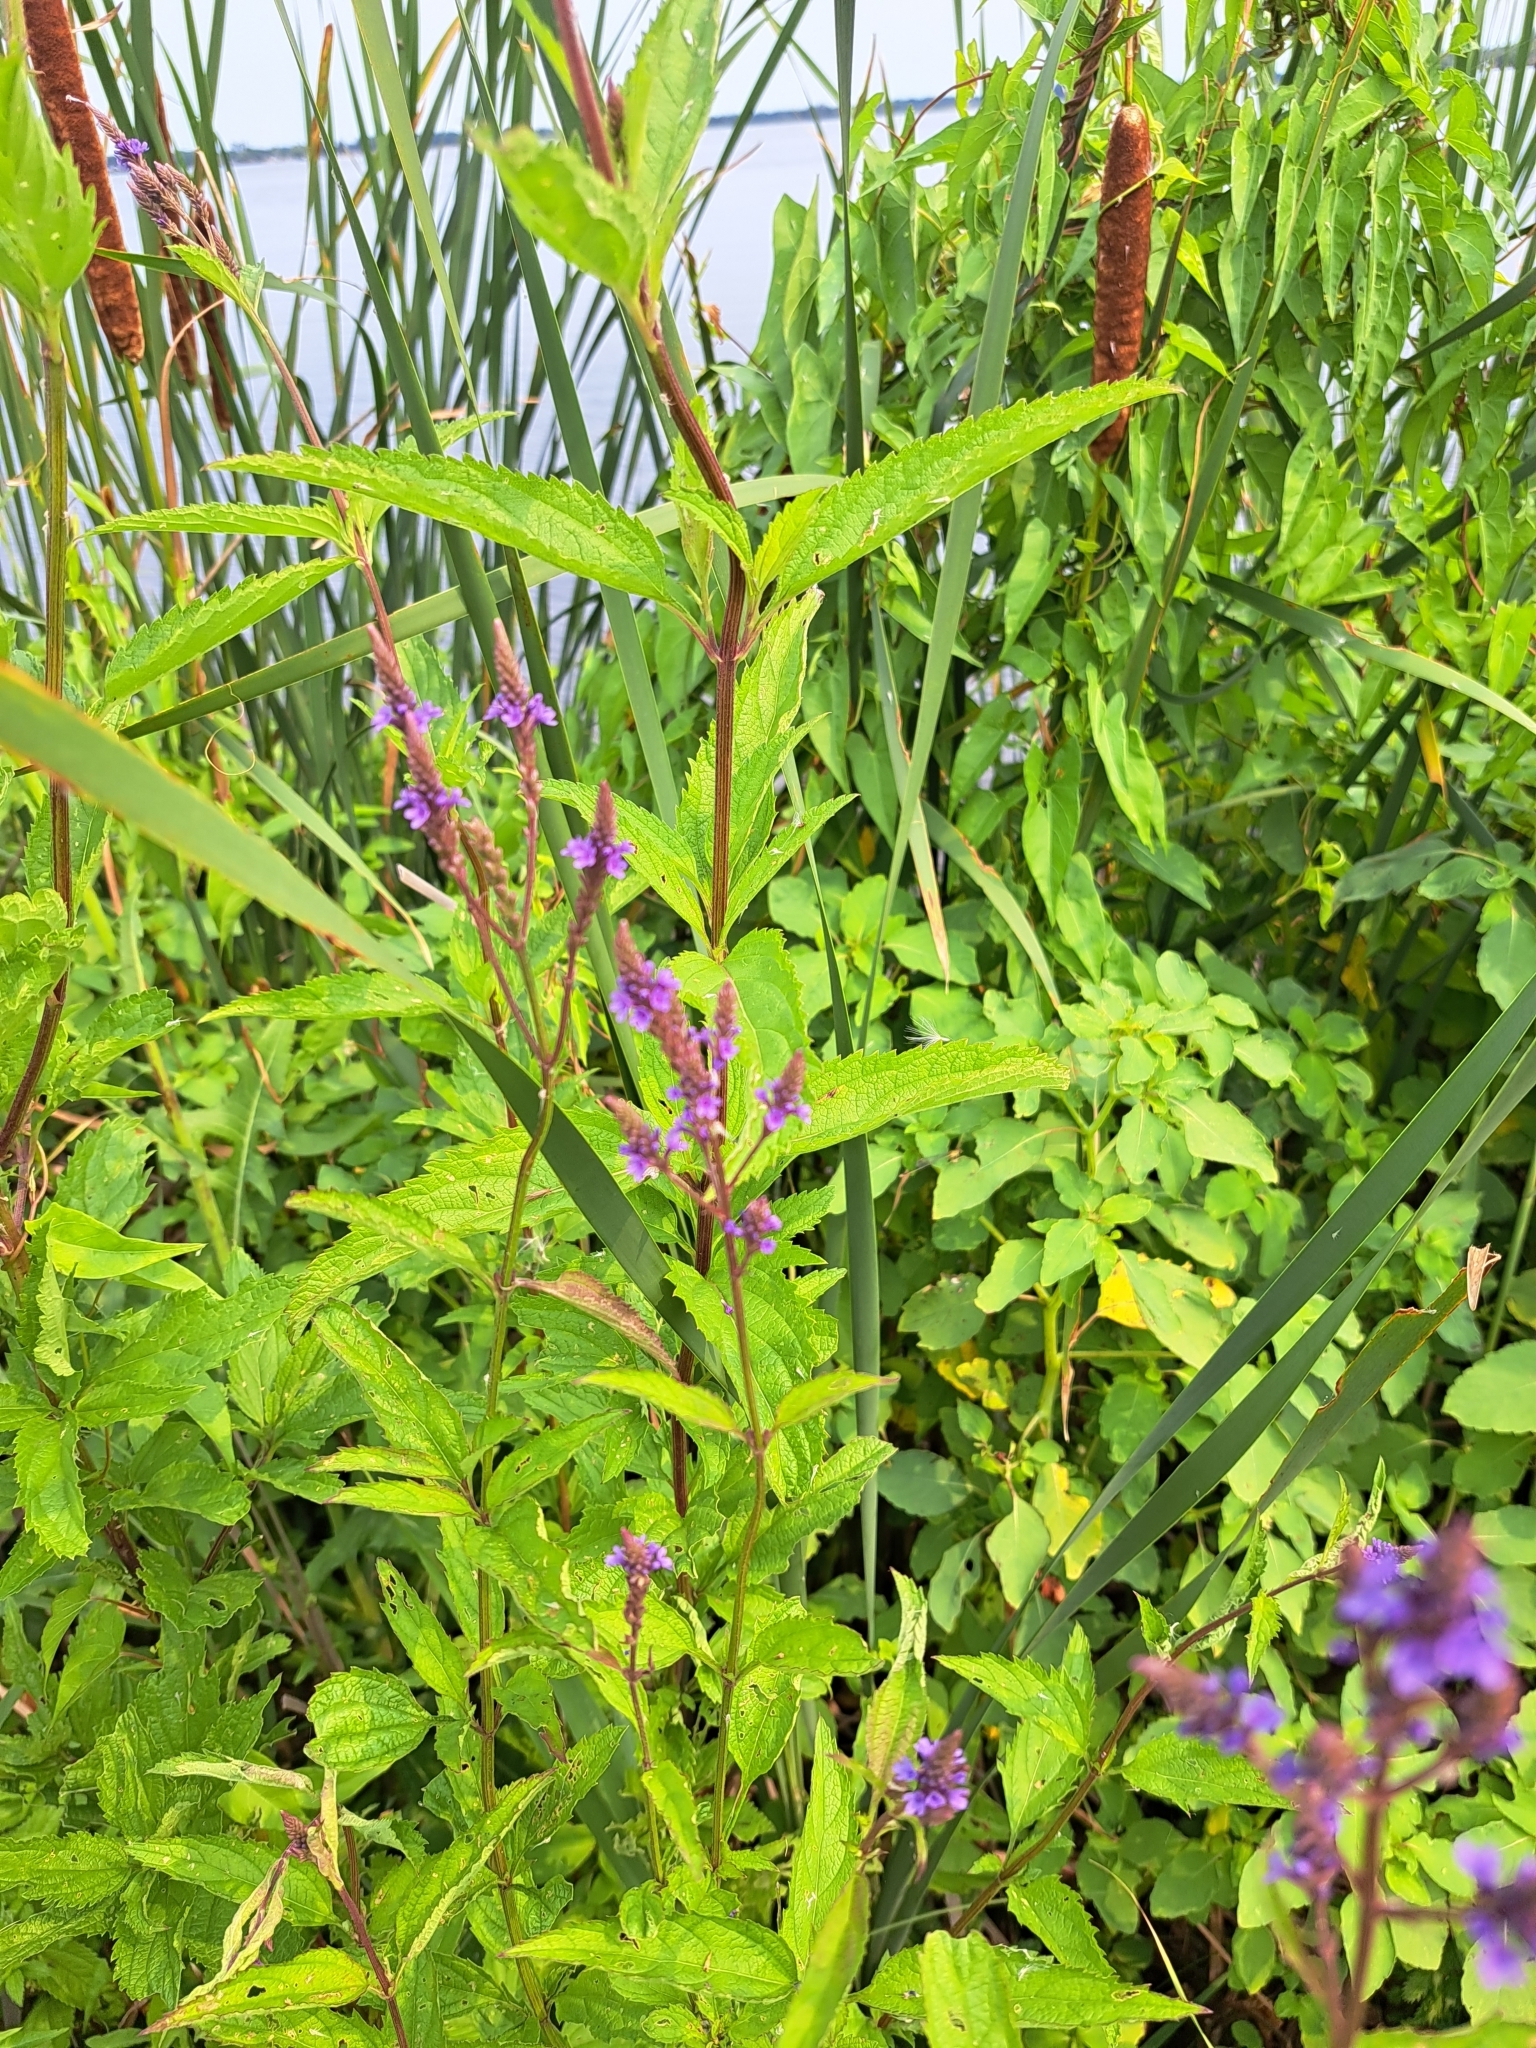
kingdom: Plantae
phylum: Tracheophyta
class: Magnoliopsida
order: Lamiales
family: Verbenaceae
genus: Verbena
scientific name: Verbena hastata
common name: American blue vervain
